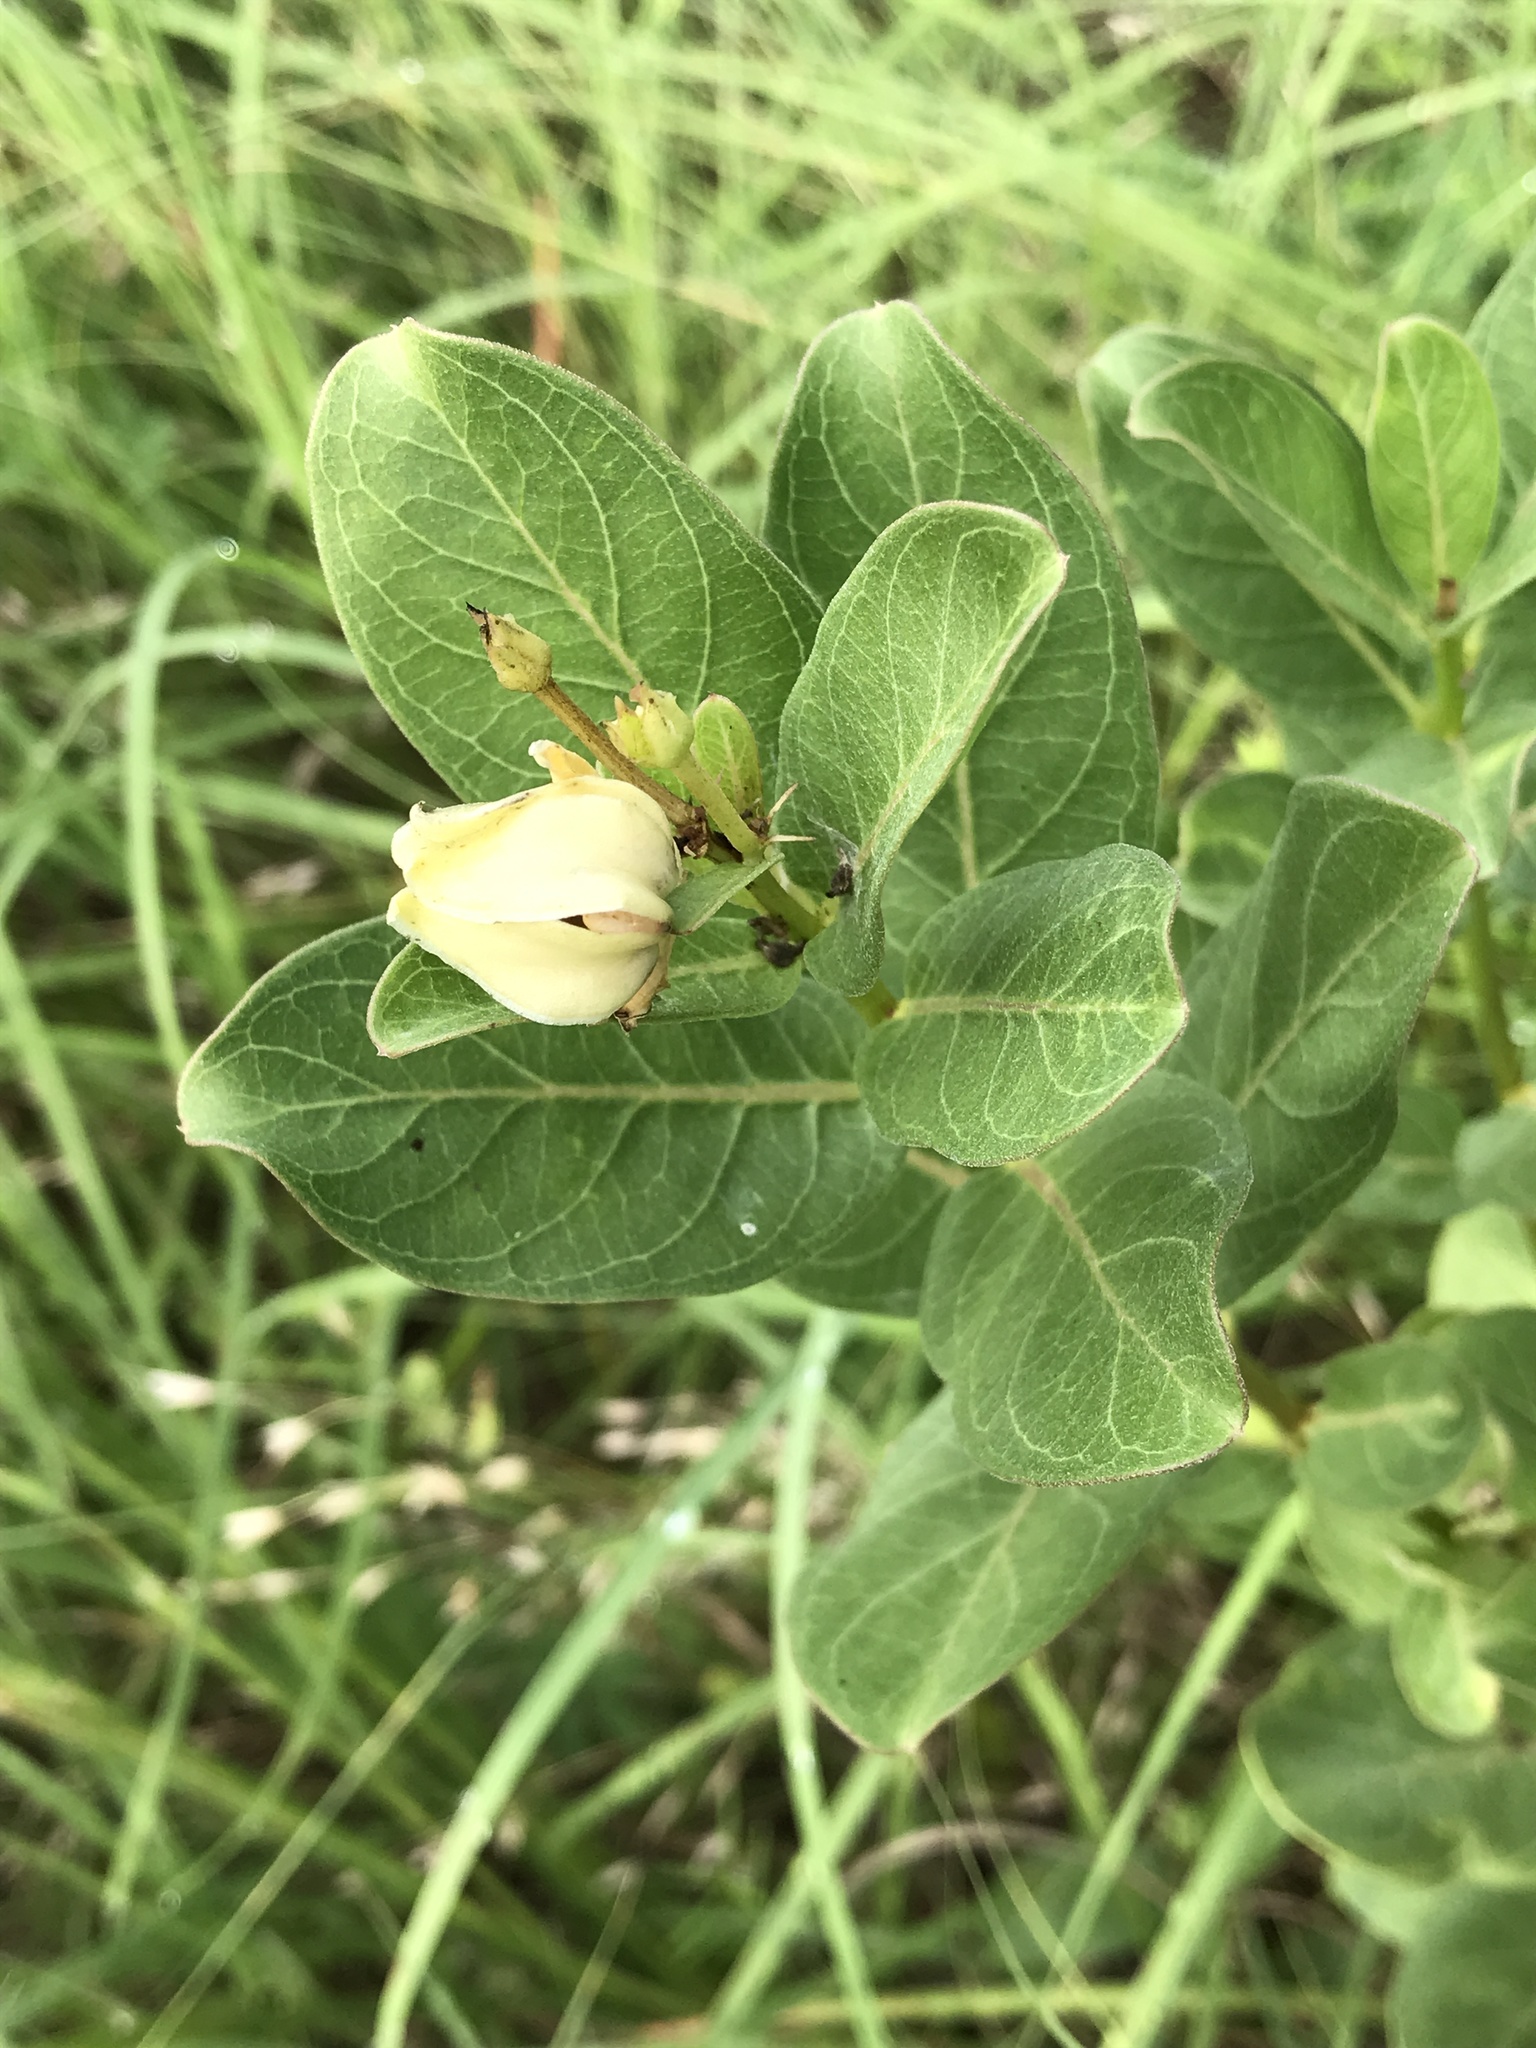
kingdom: Plantae
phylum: Tracheophyta
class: Magnoliopsida
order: Gentianales
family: Apocynaceae
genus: Asclepias
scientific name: Asclepias viridis
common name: Antelope-horns
